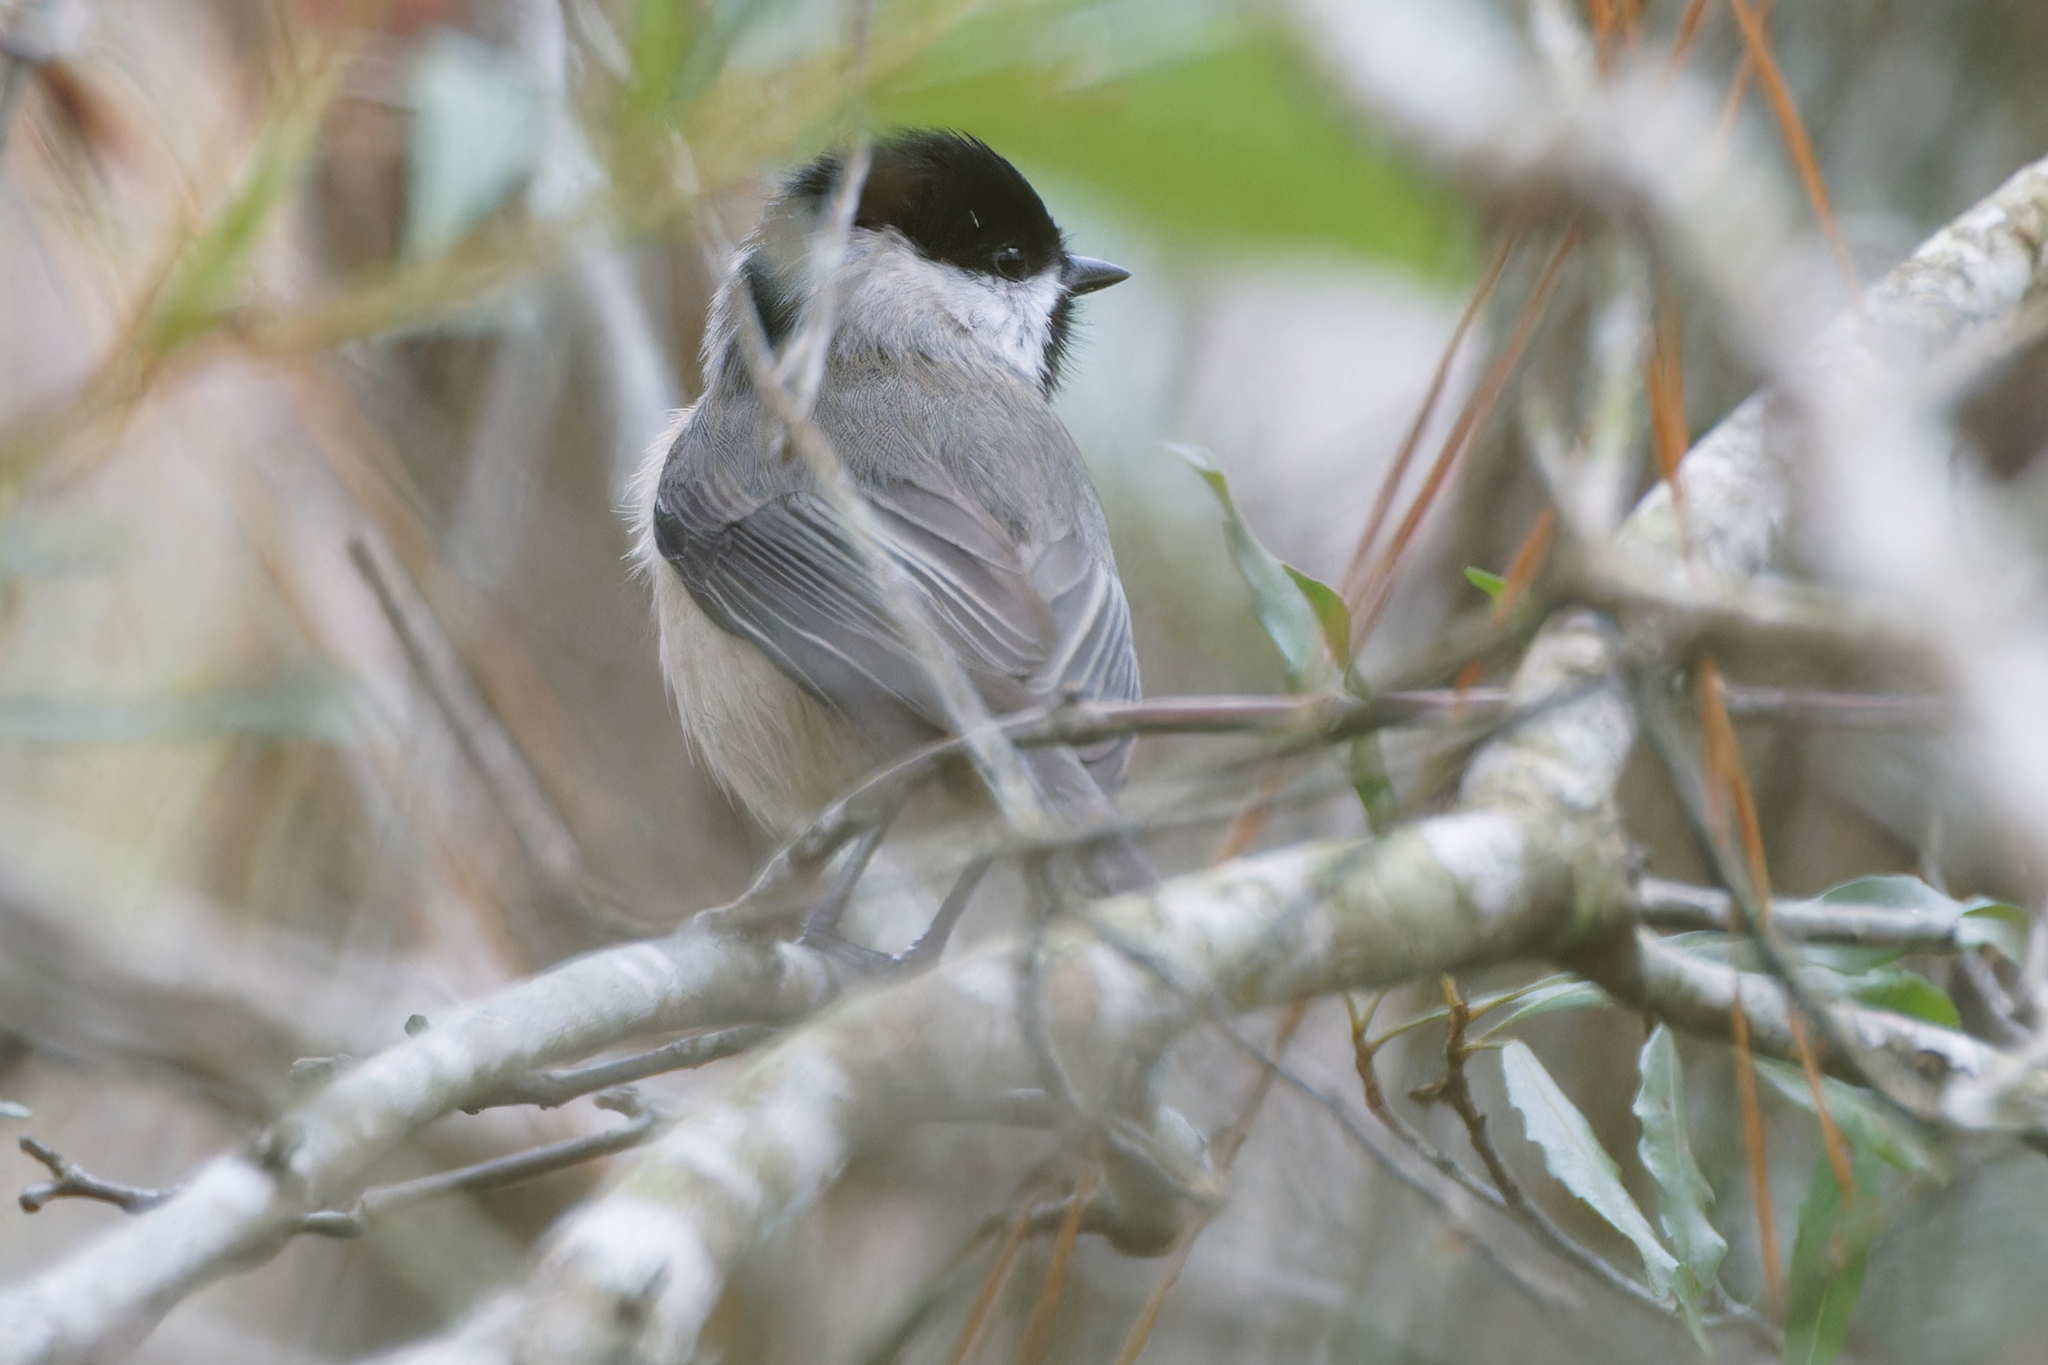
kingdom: Animalia
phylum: Chordata
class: Aves
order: Passeriformes
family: Paridae
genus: Poecile
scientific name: Poecile carolinensis
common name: Carolina chickadee
